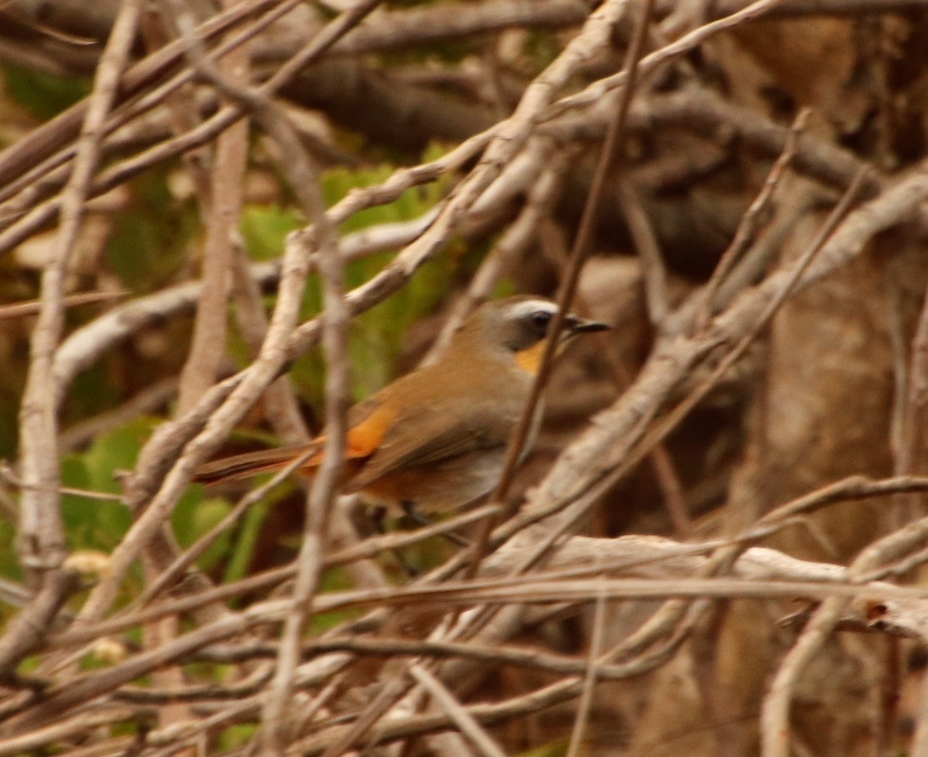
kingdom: Animalia
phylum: Chordata
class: Aves
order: Passeriformes
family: Muscicapidae
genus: Cossypha
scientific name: Cossypha caffra
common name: Cape robin-chat
